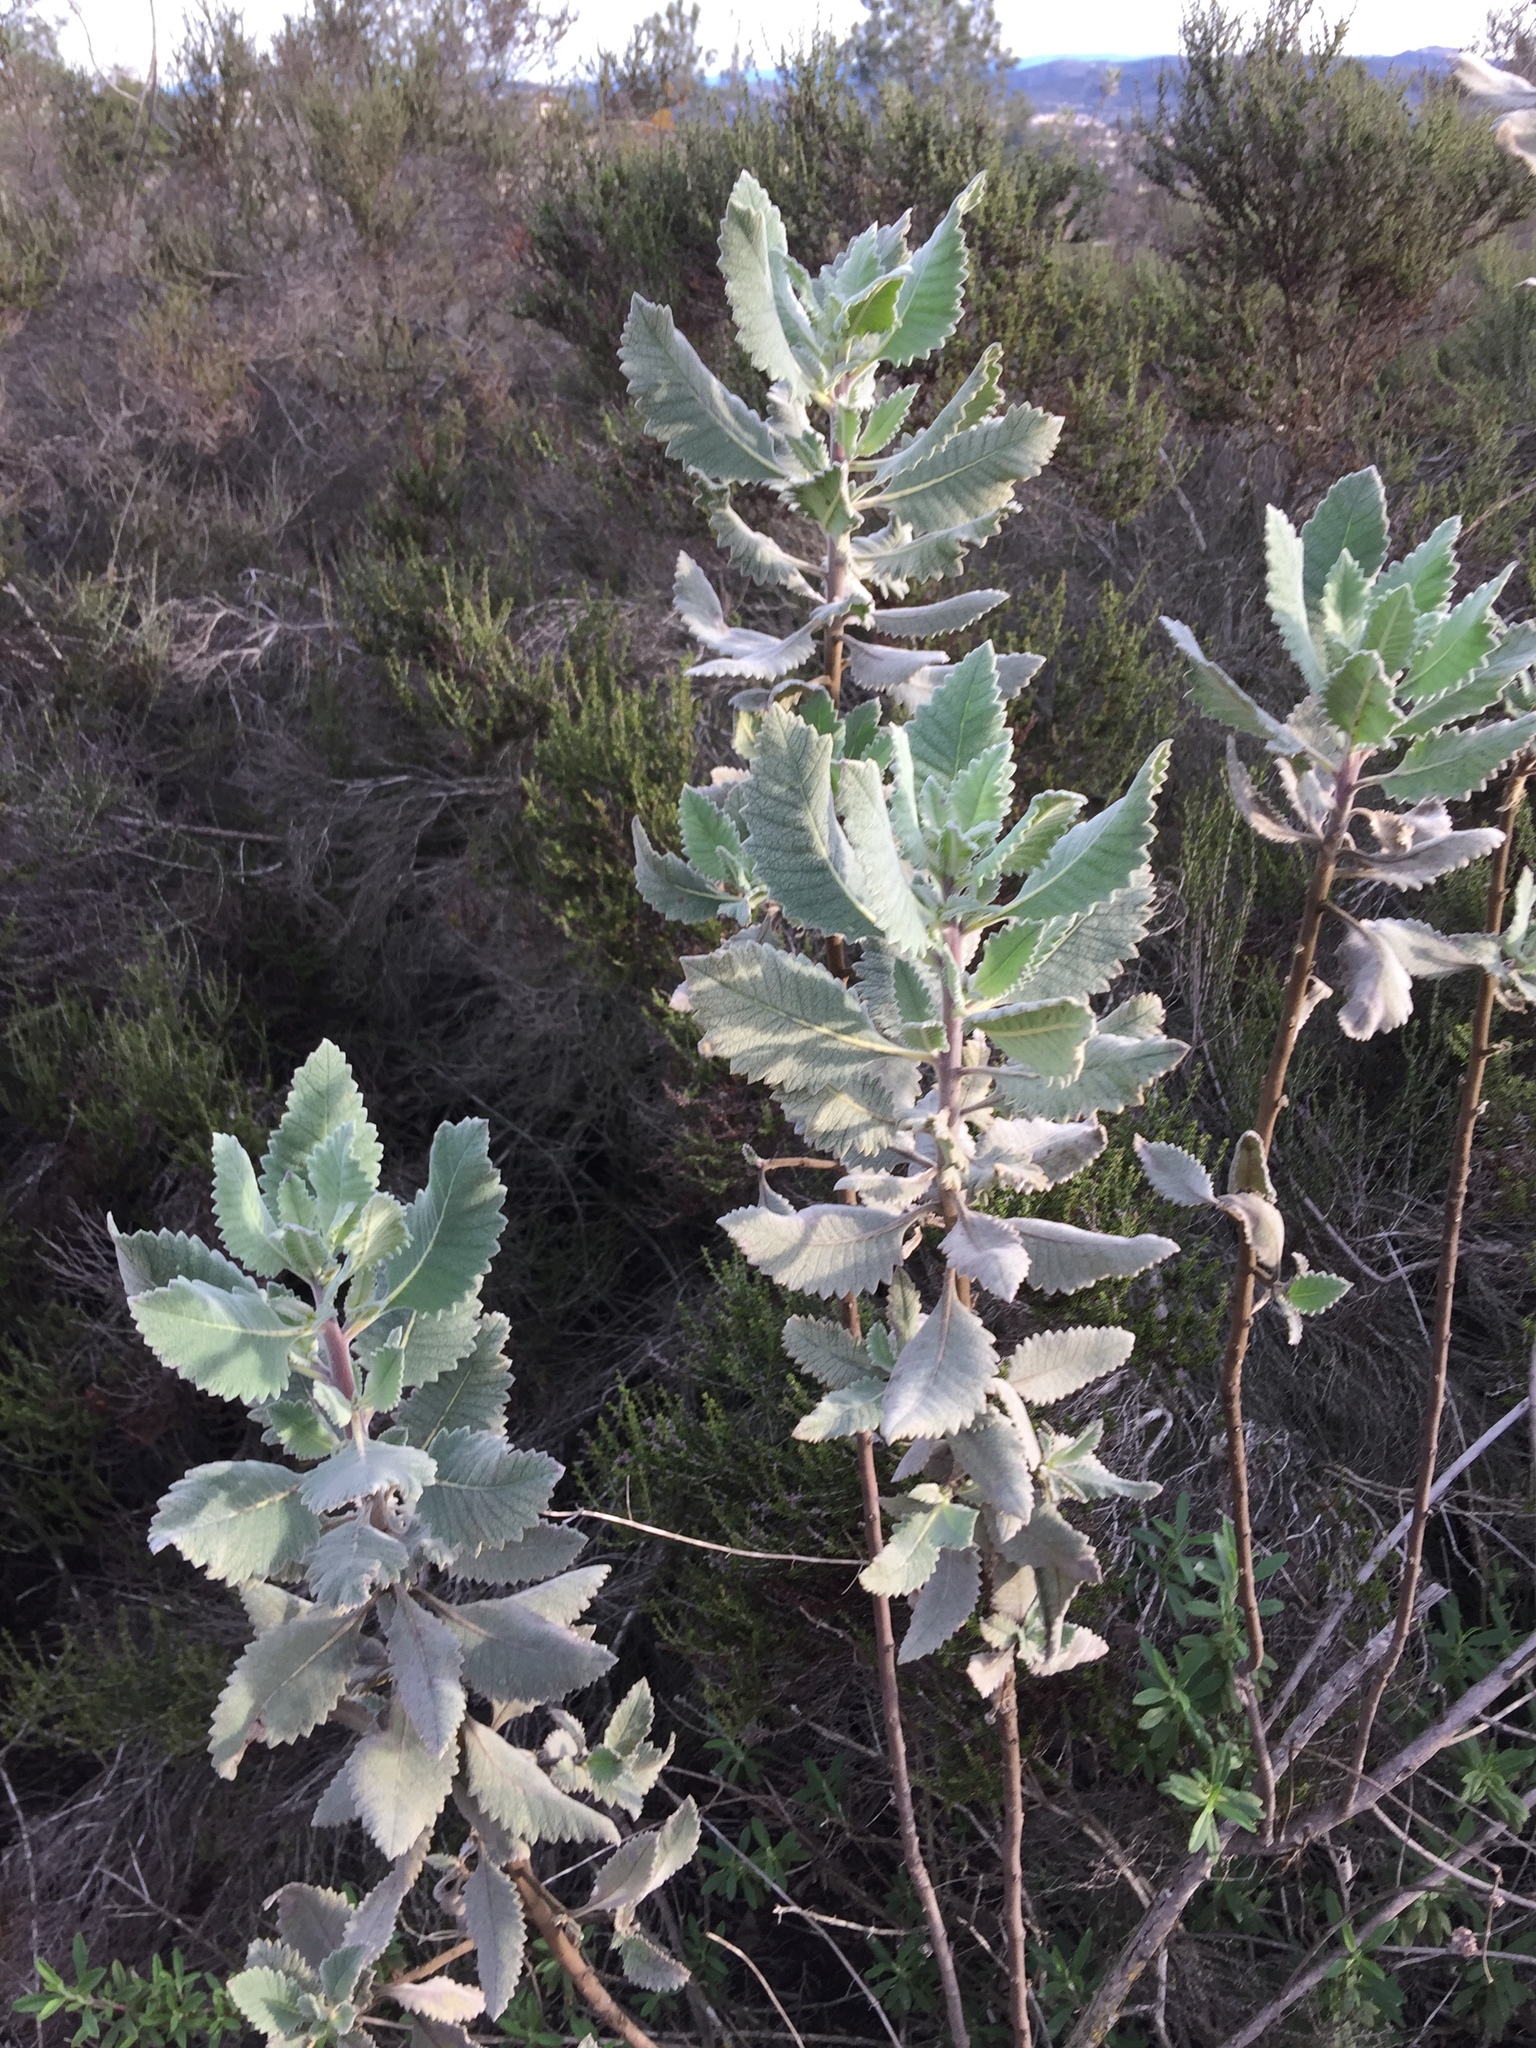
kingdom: Plantae
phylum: Tracheophyta
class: Magnoliopsida
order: Boraginales
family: Namaceae
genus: Eriodictyon
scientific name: Eriodictyon crassifolium
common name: Thick-leaf yerba-santa
